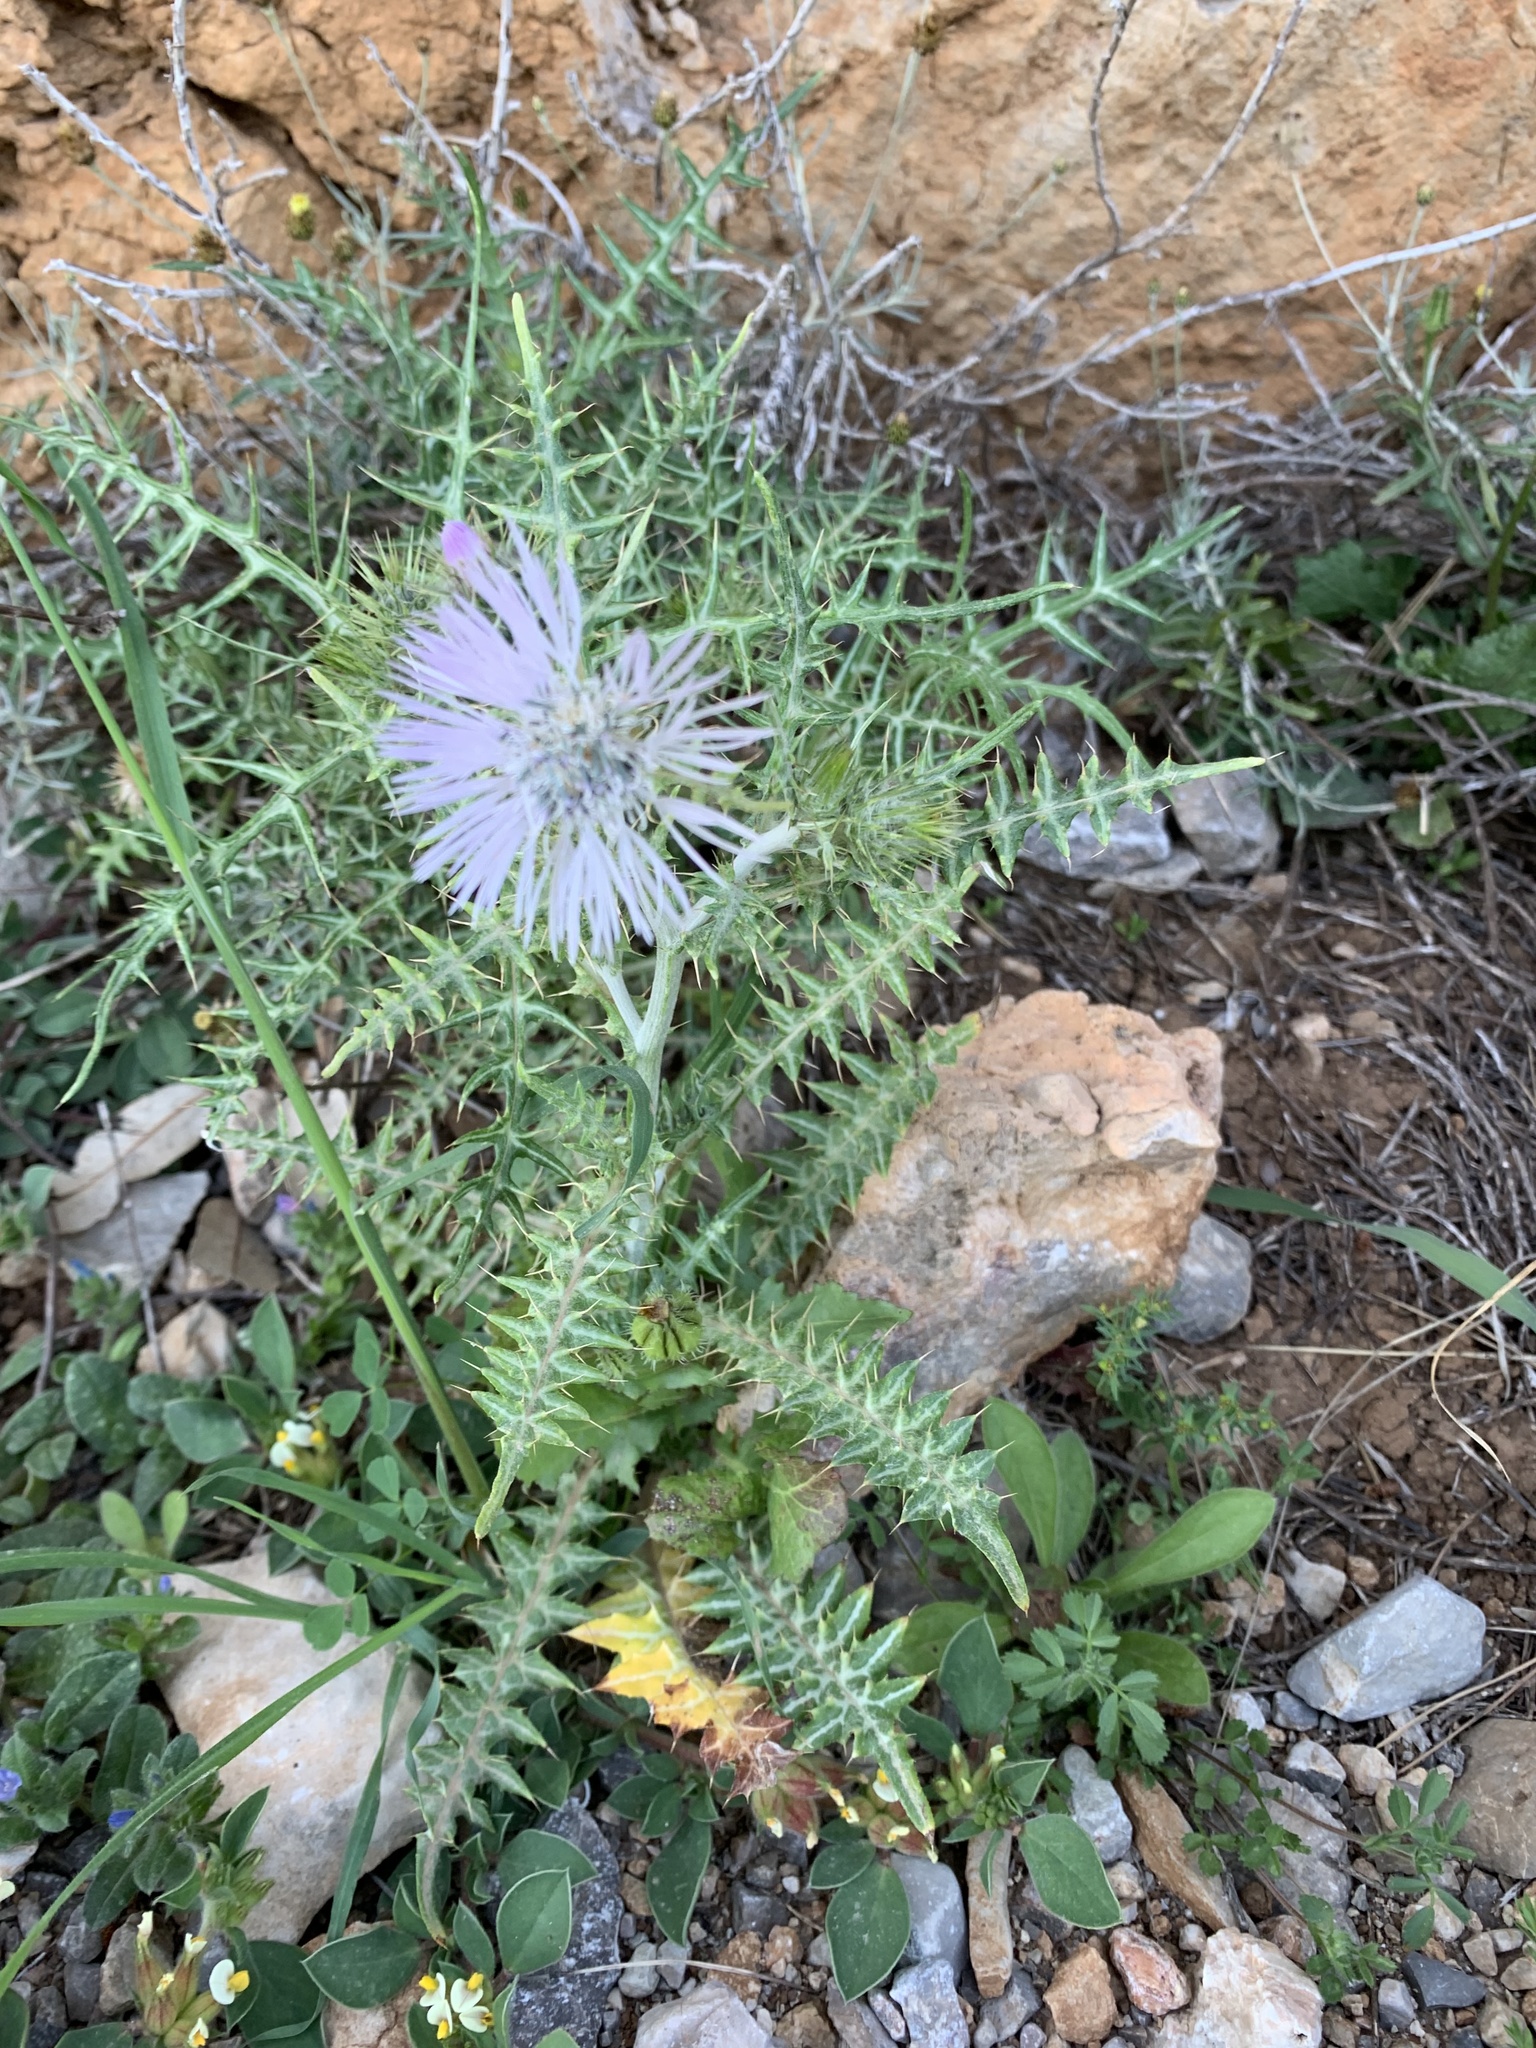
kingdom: Plantae
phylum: Tracheophyta
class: Magnoliopsida
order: Asterales
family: Asteraceae
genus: Galactites
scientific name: Galactites tomentosa
